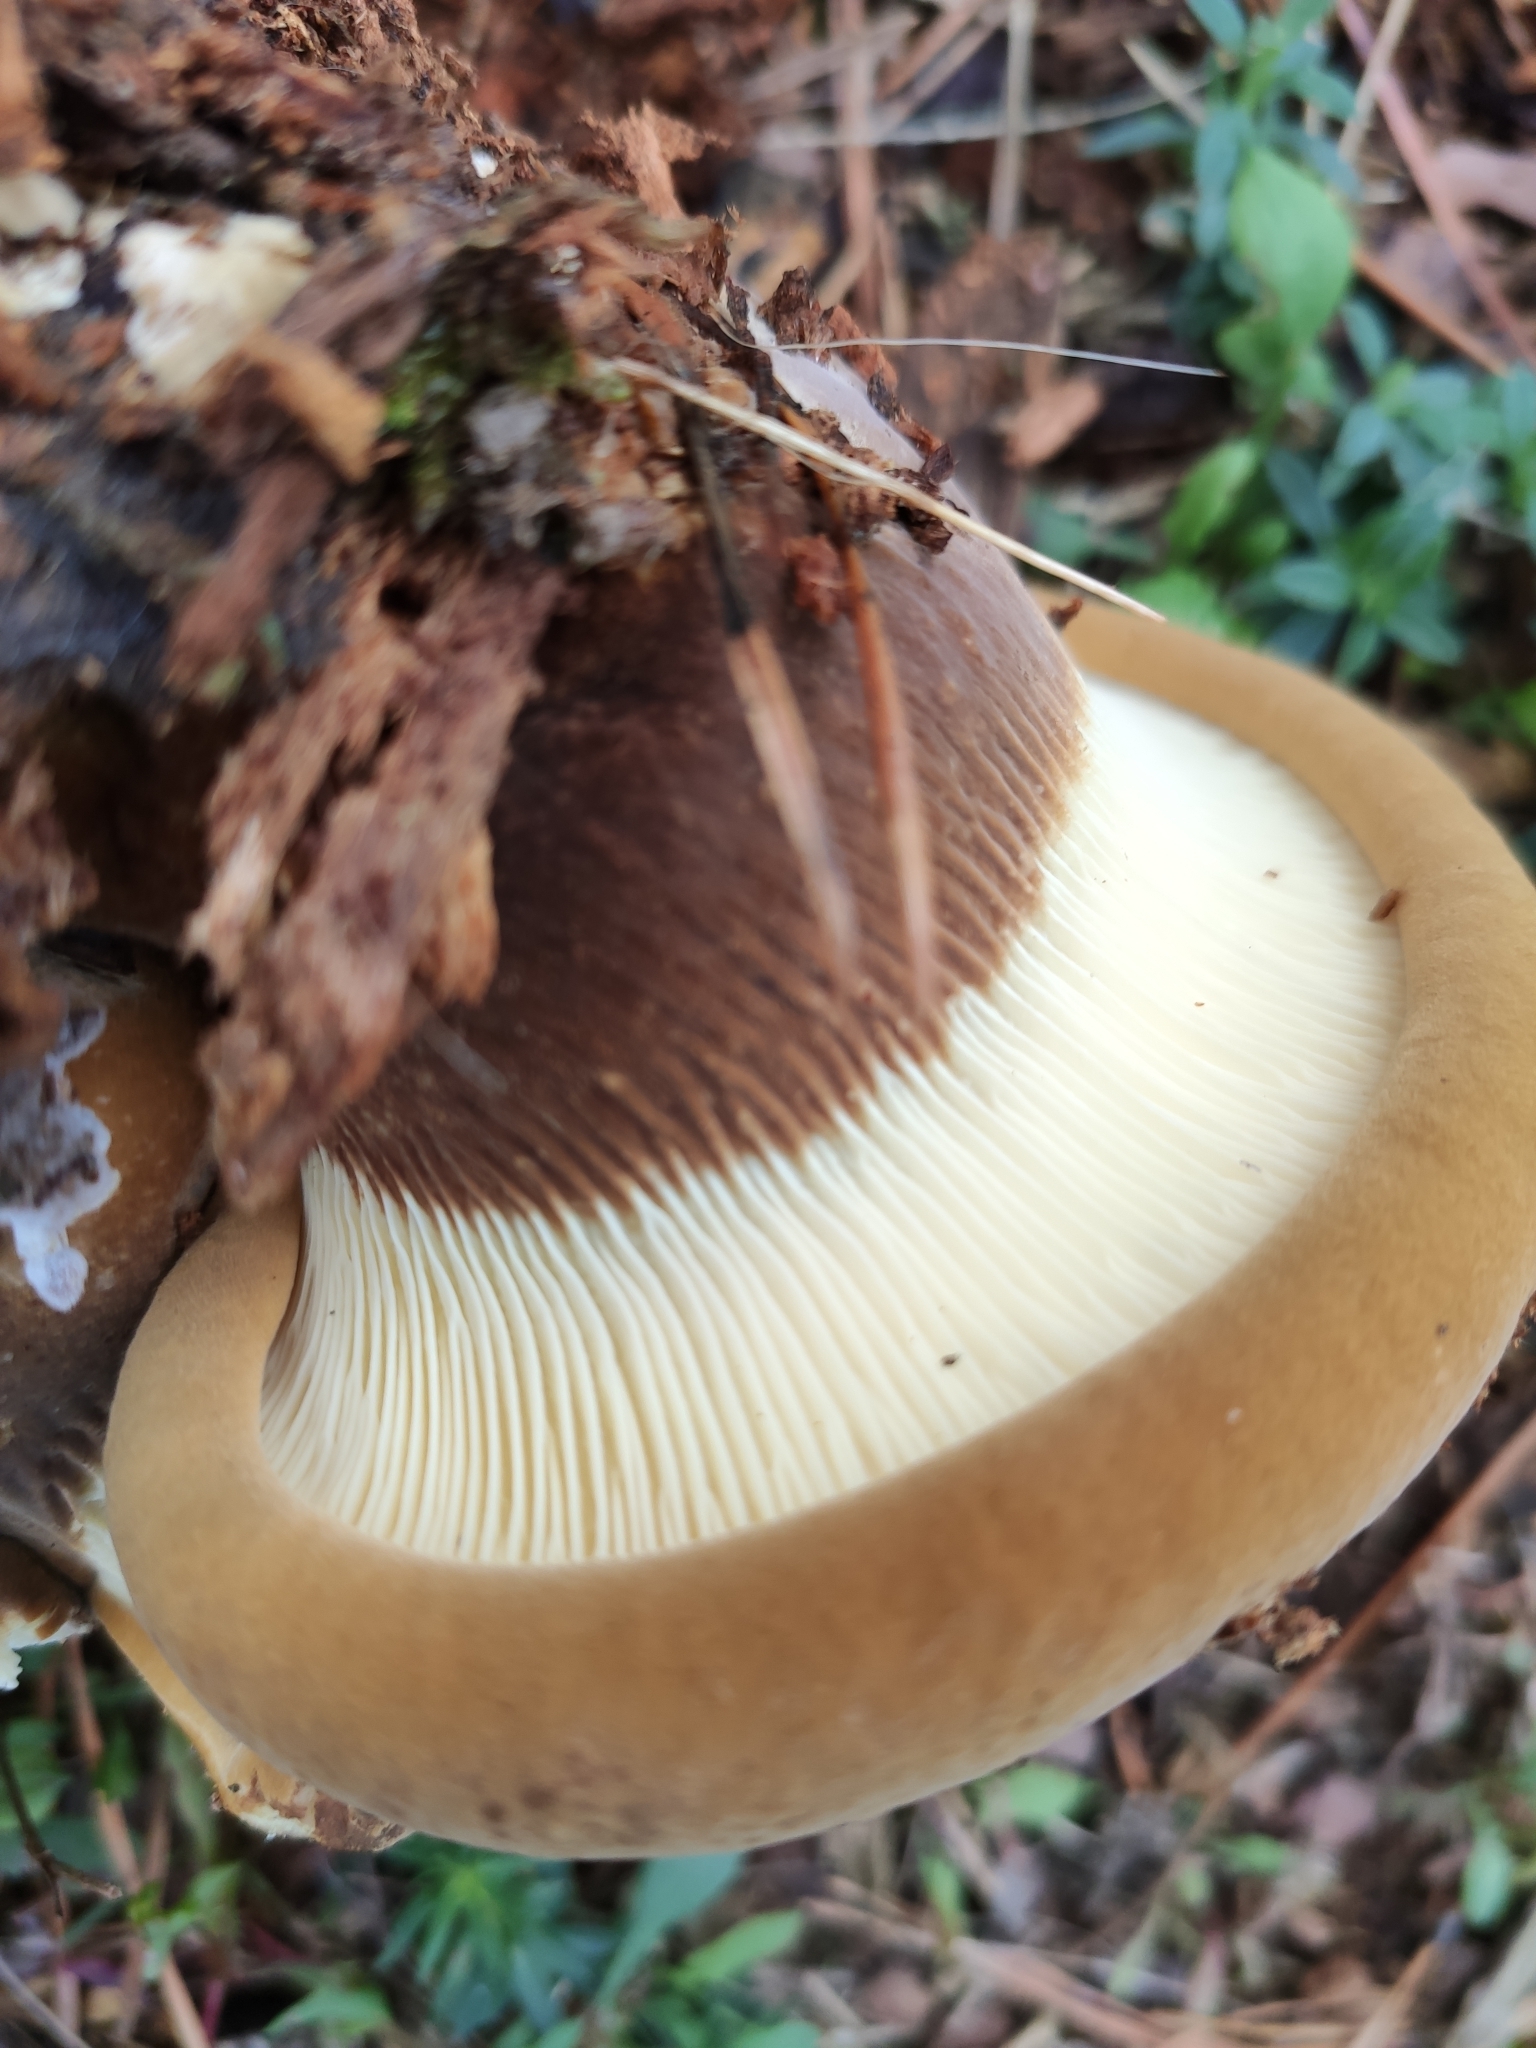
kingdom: Fungi
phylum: Basidiomycota
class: Agaricomycetes
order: Boletales
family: Tapinellaceae
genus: Tapinella
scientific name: Tapinella atrotomentosa
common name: Velvet rollrim
